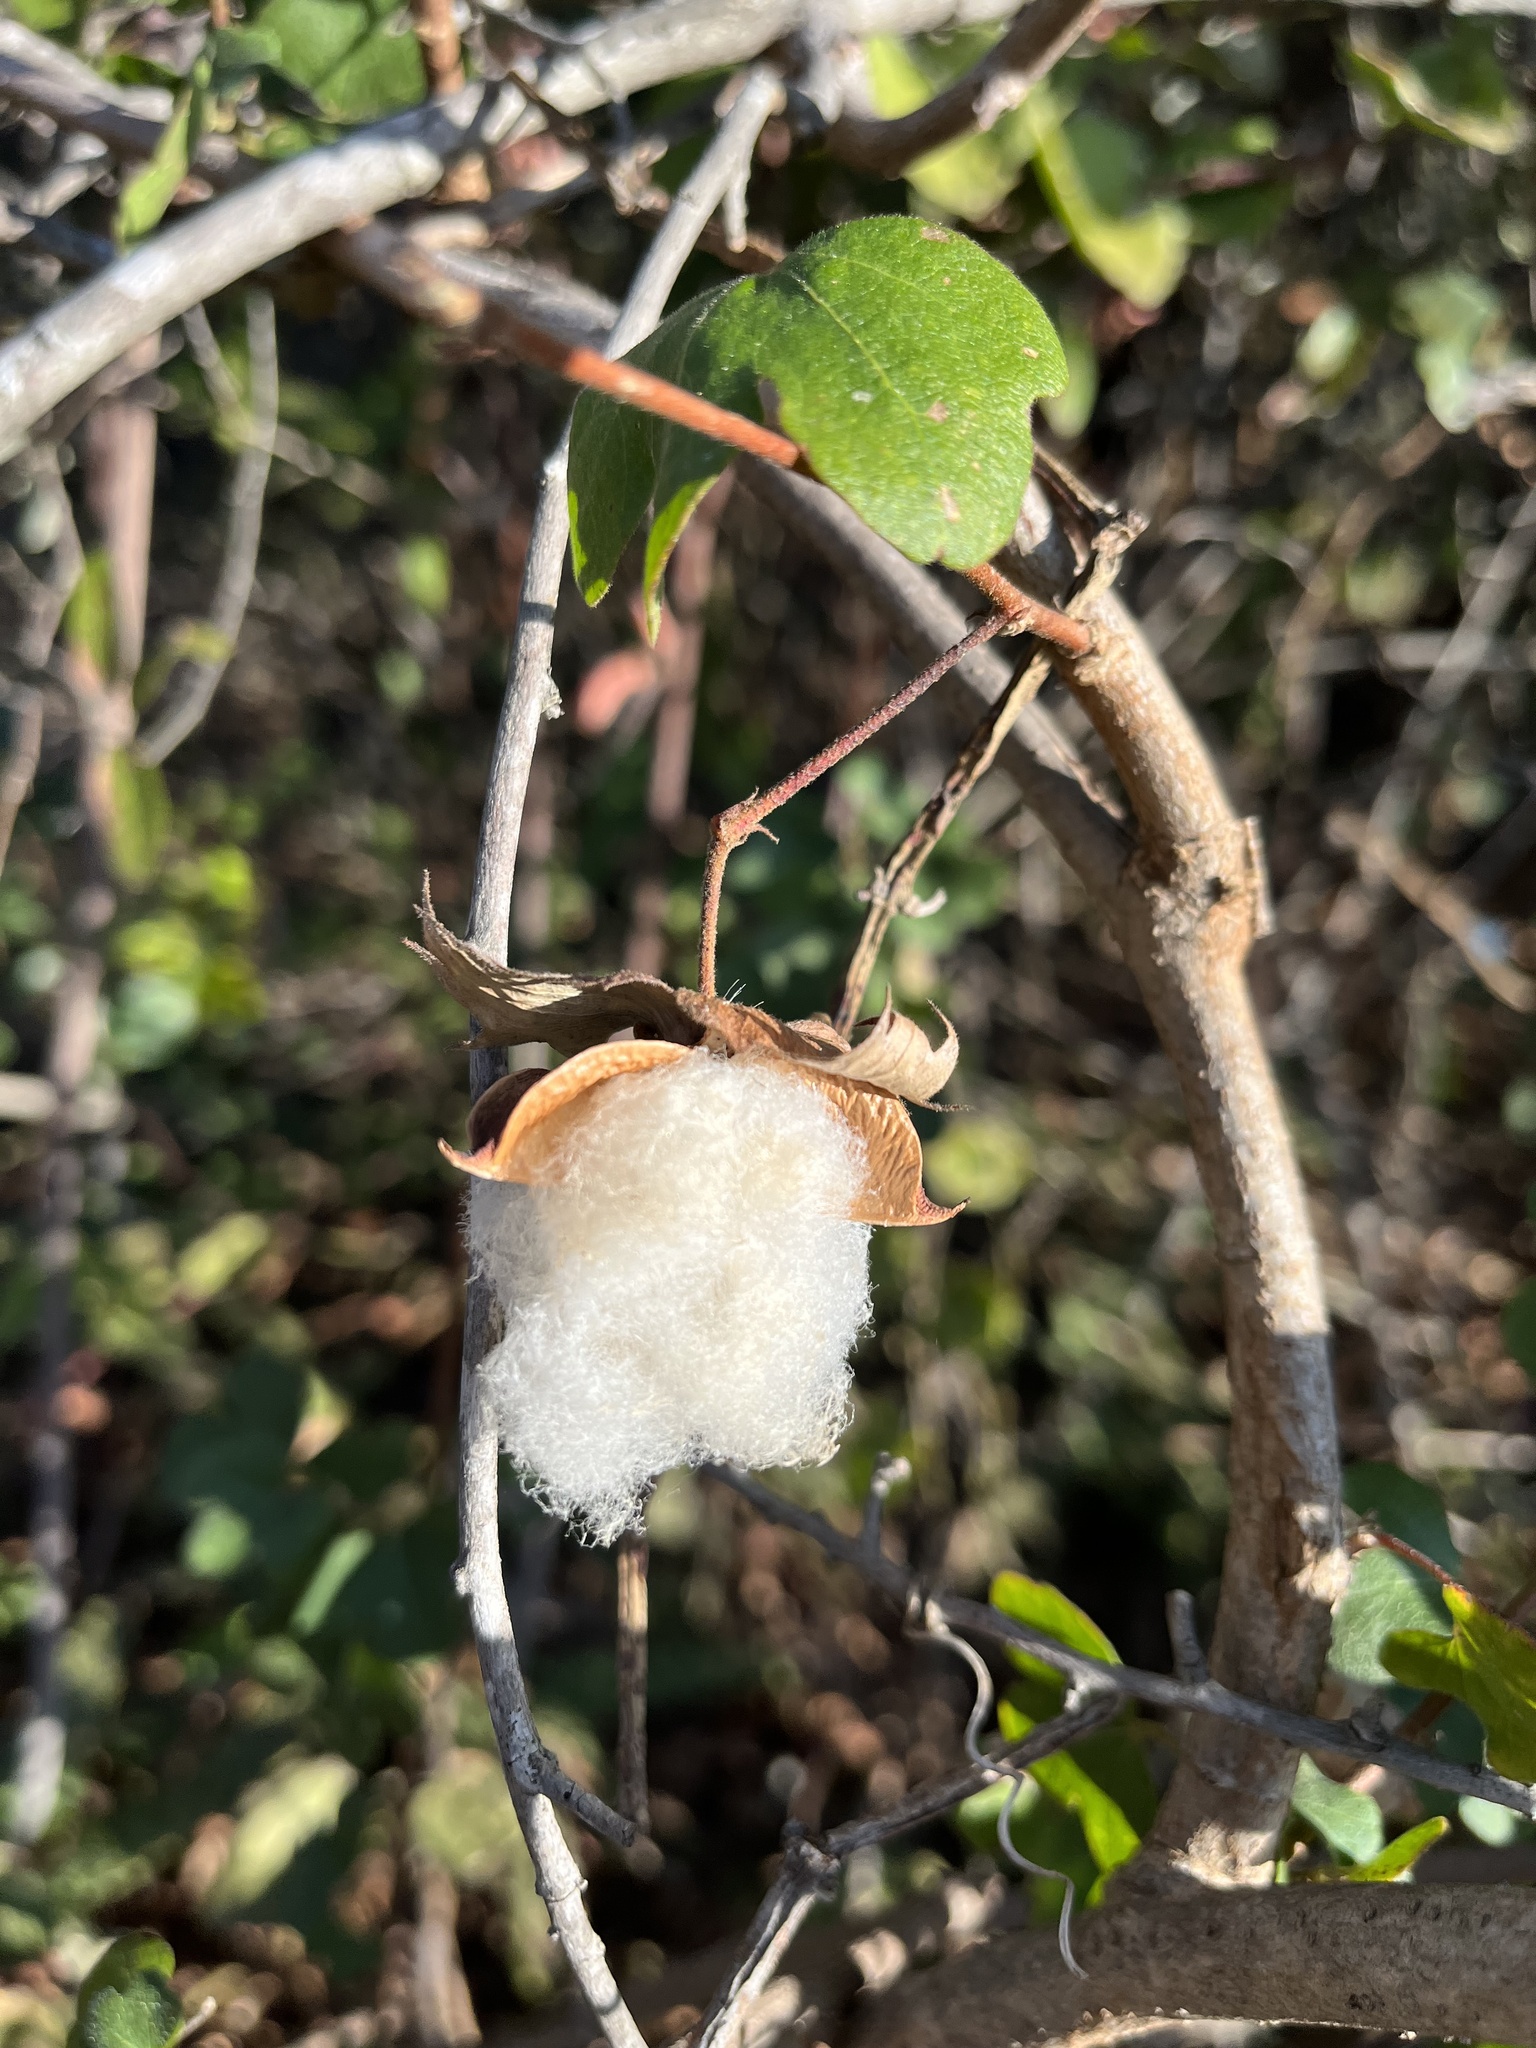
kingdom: Plantae
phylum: Tracheophyta
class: Magnoliopsida
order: Malvales
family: Malvaceae
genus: Gossypium
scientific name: Gossypium herbaceum
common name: Levant cotton
